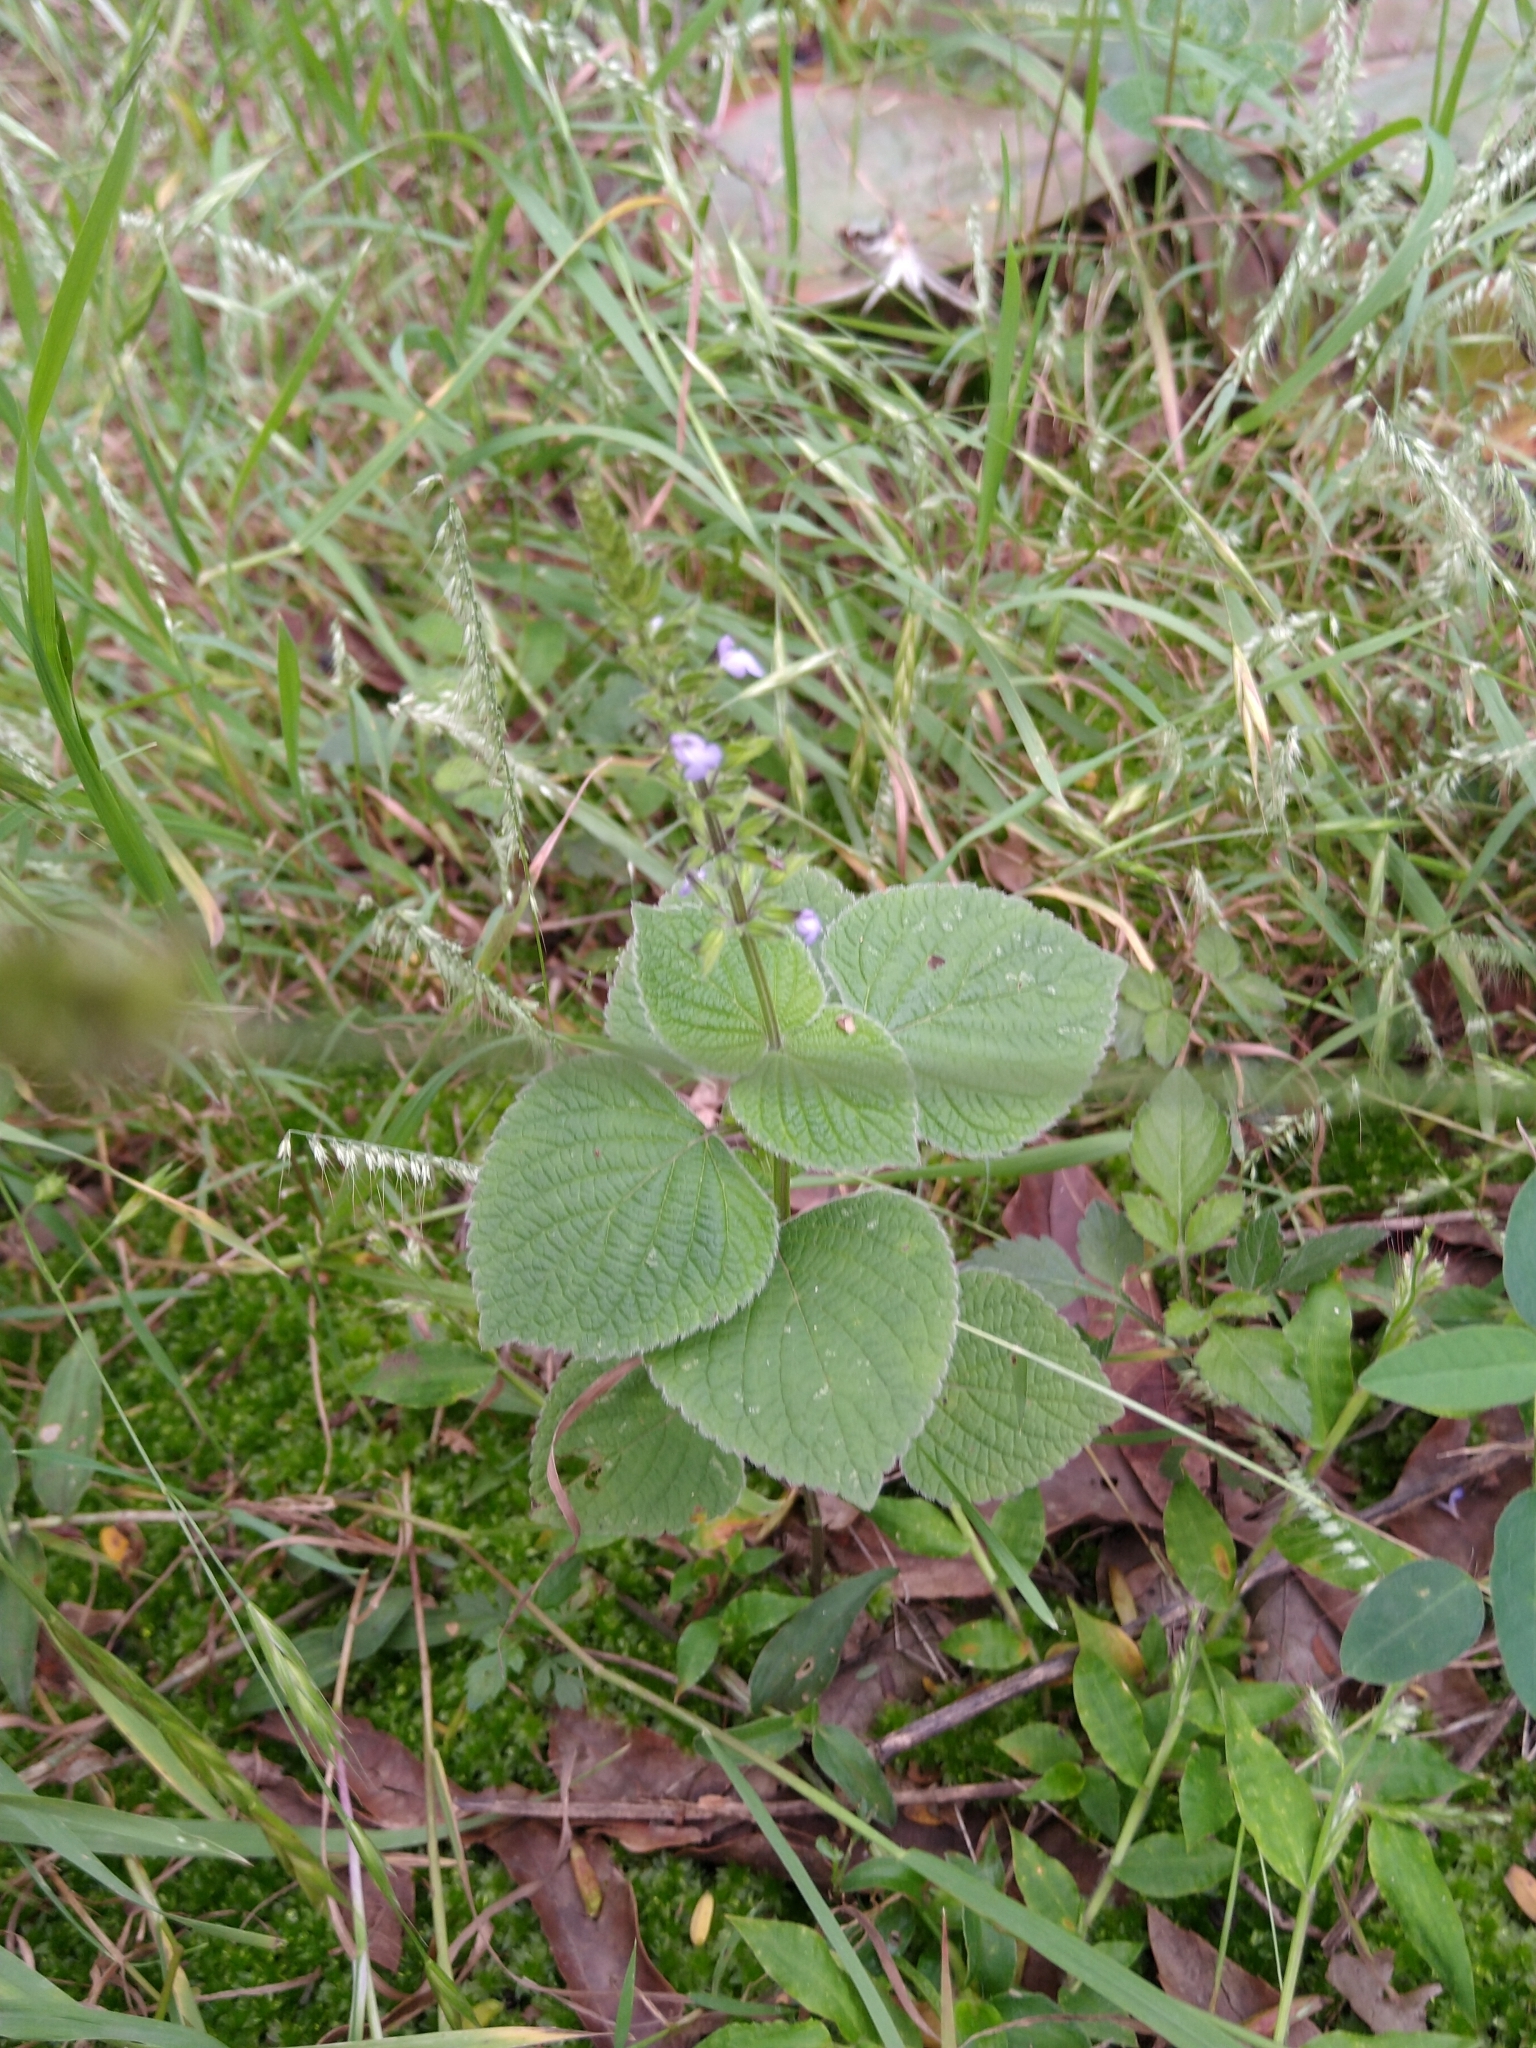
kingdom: Plantae
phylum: Tracheophyta
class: Magnoliopsida
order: Lamiales
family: Lamiaceae
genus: Salvia
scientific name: Salvia tiliifolia
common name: Lindenleaf sage
